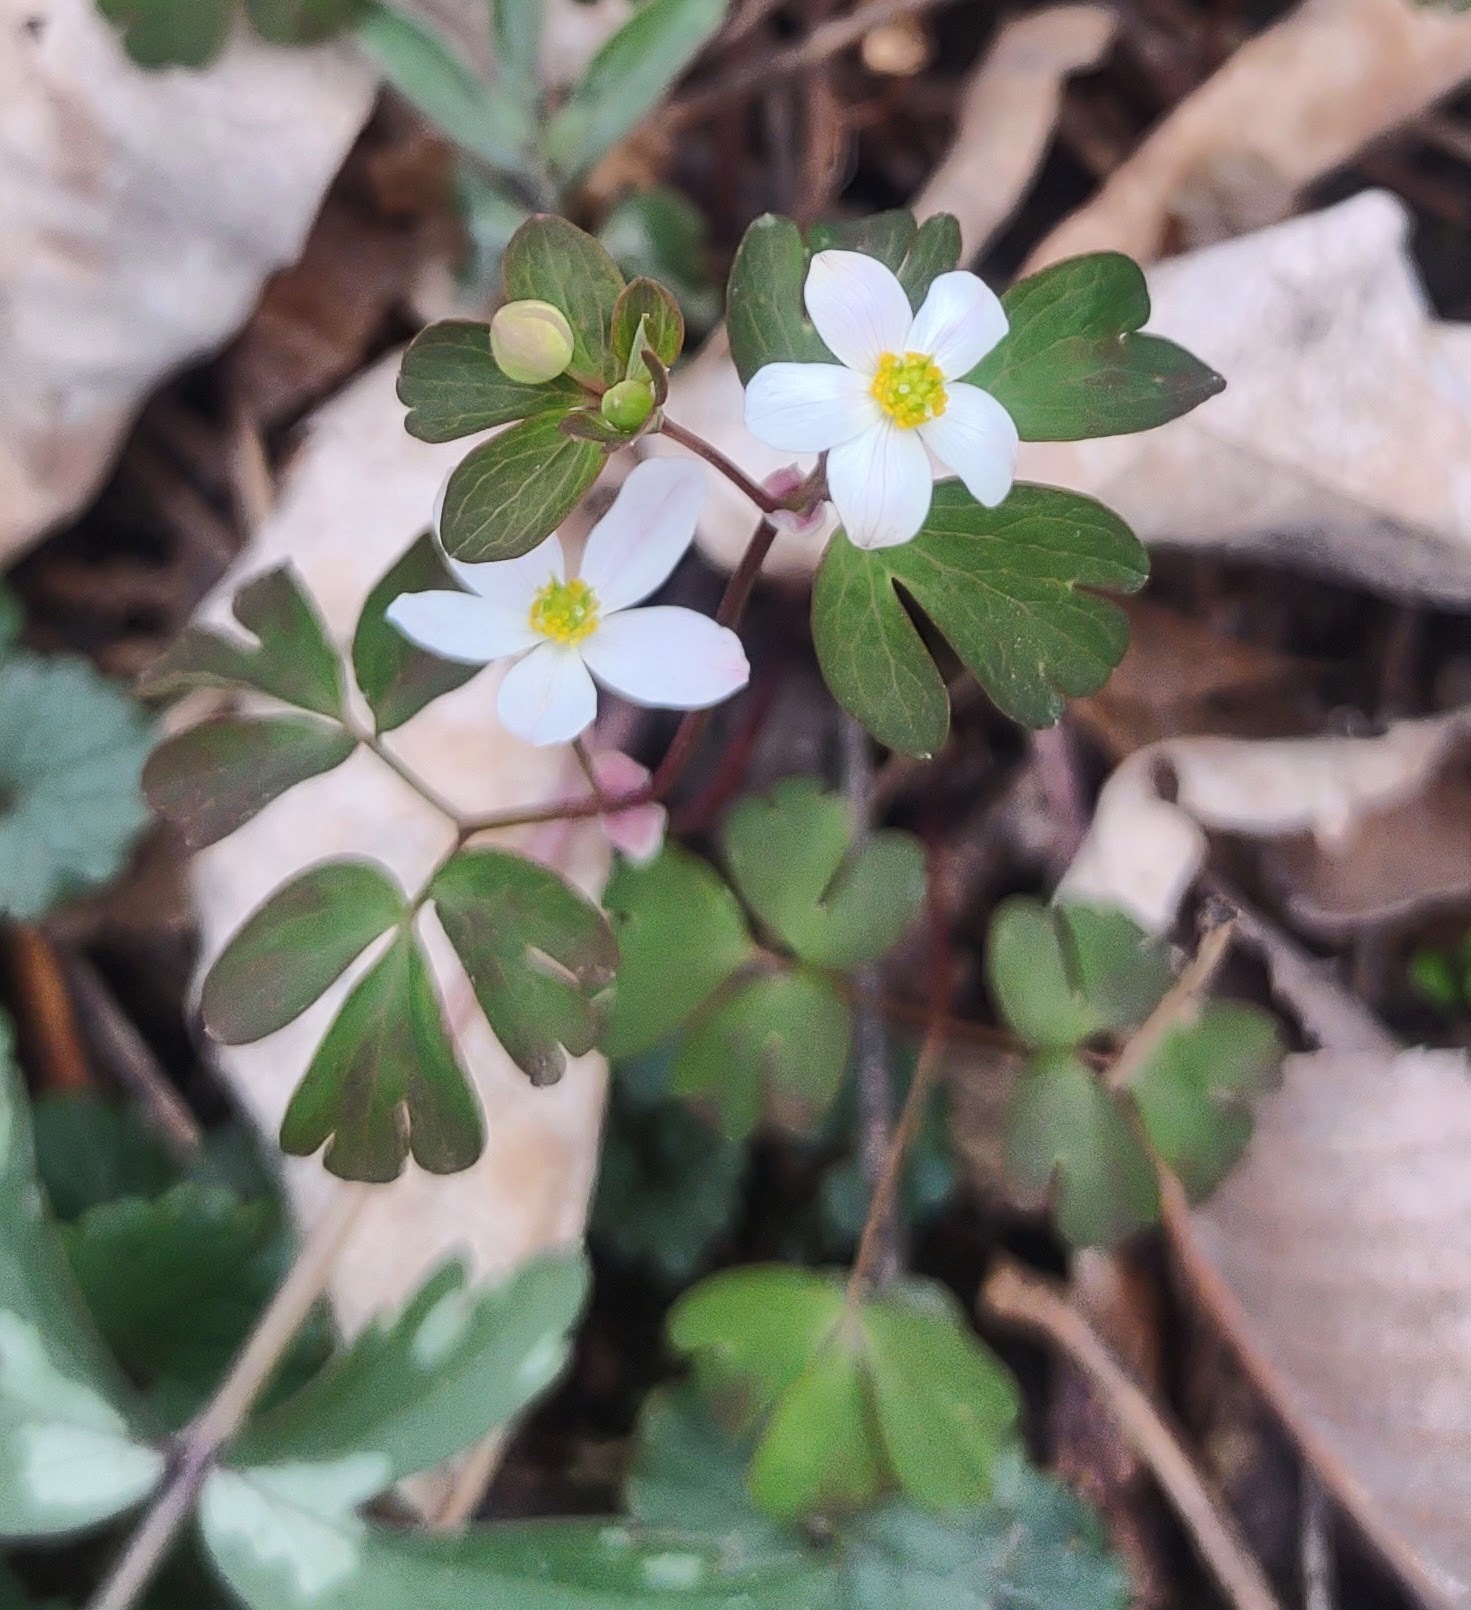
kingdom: Plantae
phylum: Tracheophyta
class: Magnoliopsida
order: Ranunculales
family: Ranunculaceae
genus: Enemion
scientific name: Enemion biternatum
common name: Eastern false rue-anemone
